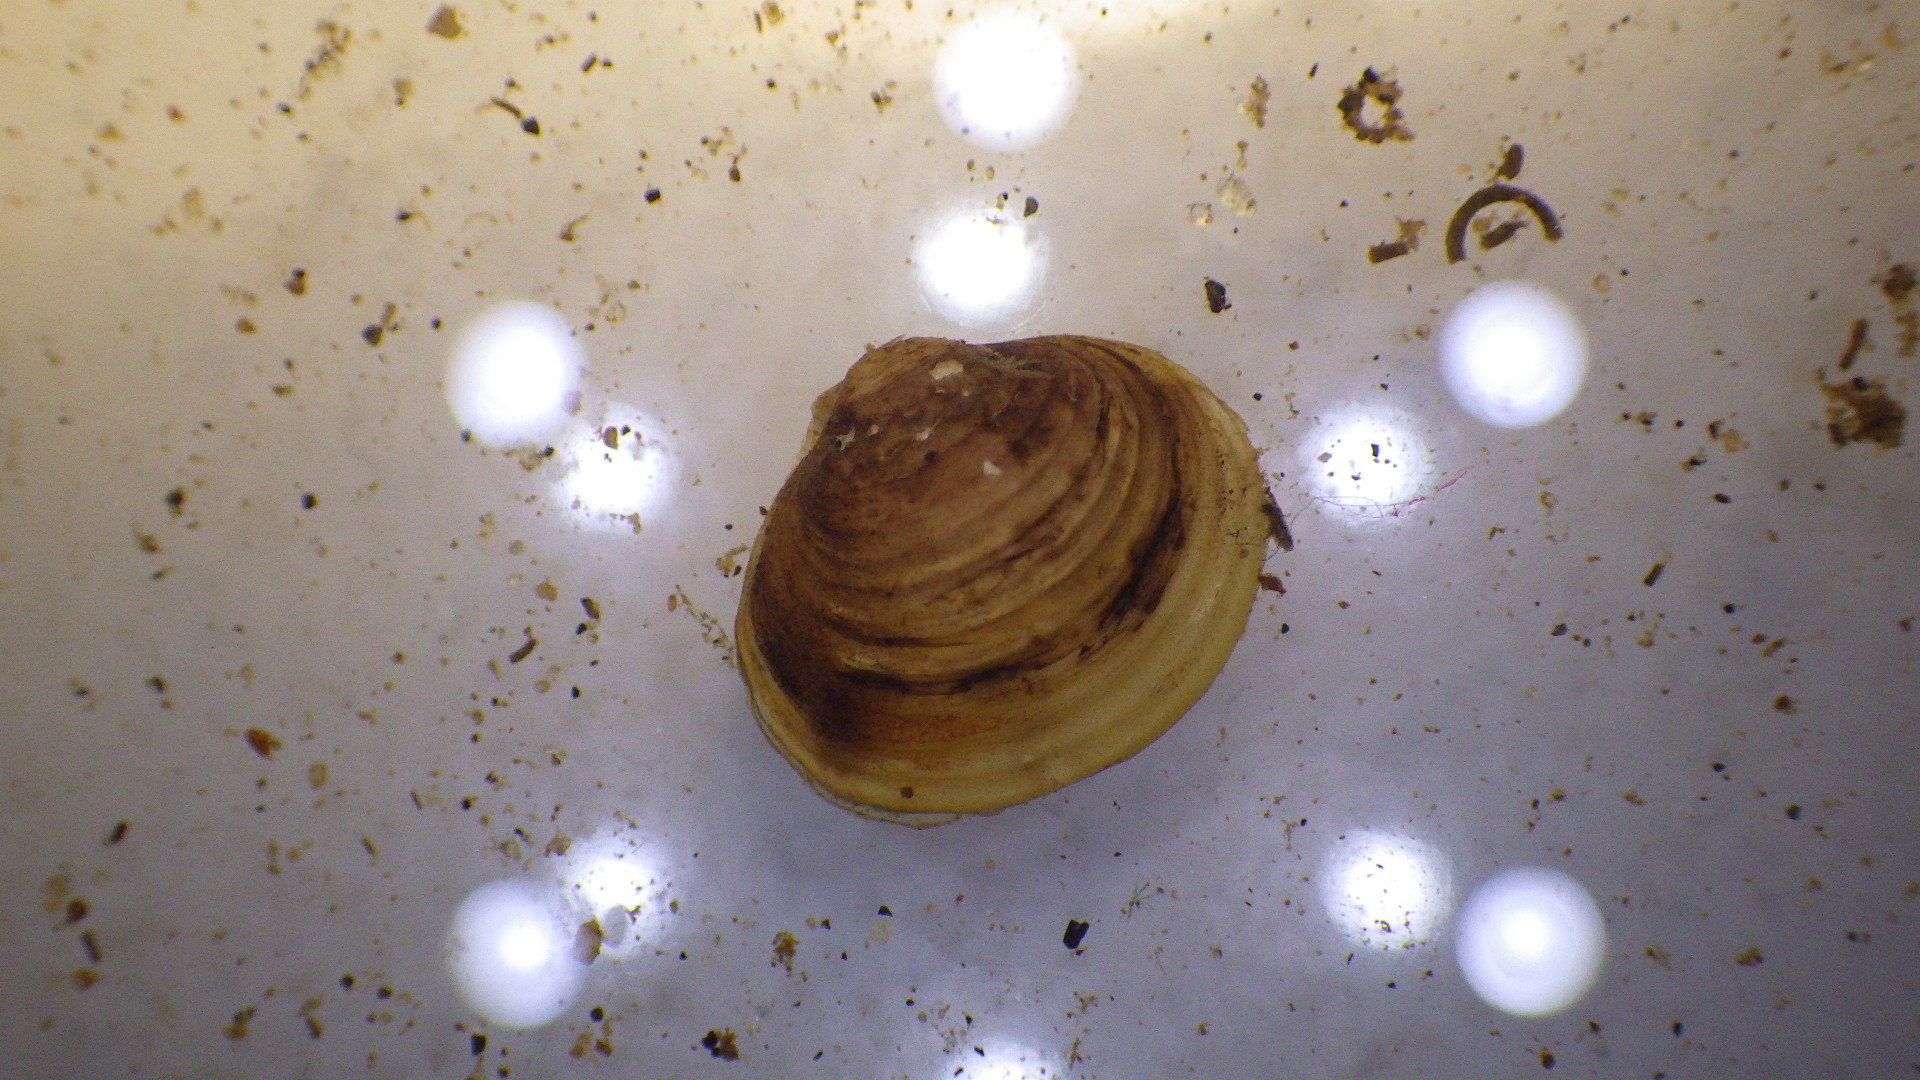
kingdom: Animalia
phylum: Mollusca
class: Bivalvia
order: Venerida
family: Cyrenidae
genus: Corbicula
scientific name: Corbicula fluminea
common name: Asian clam
